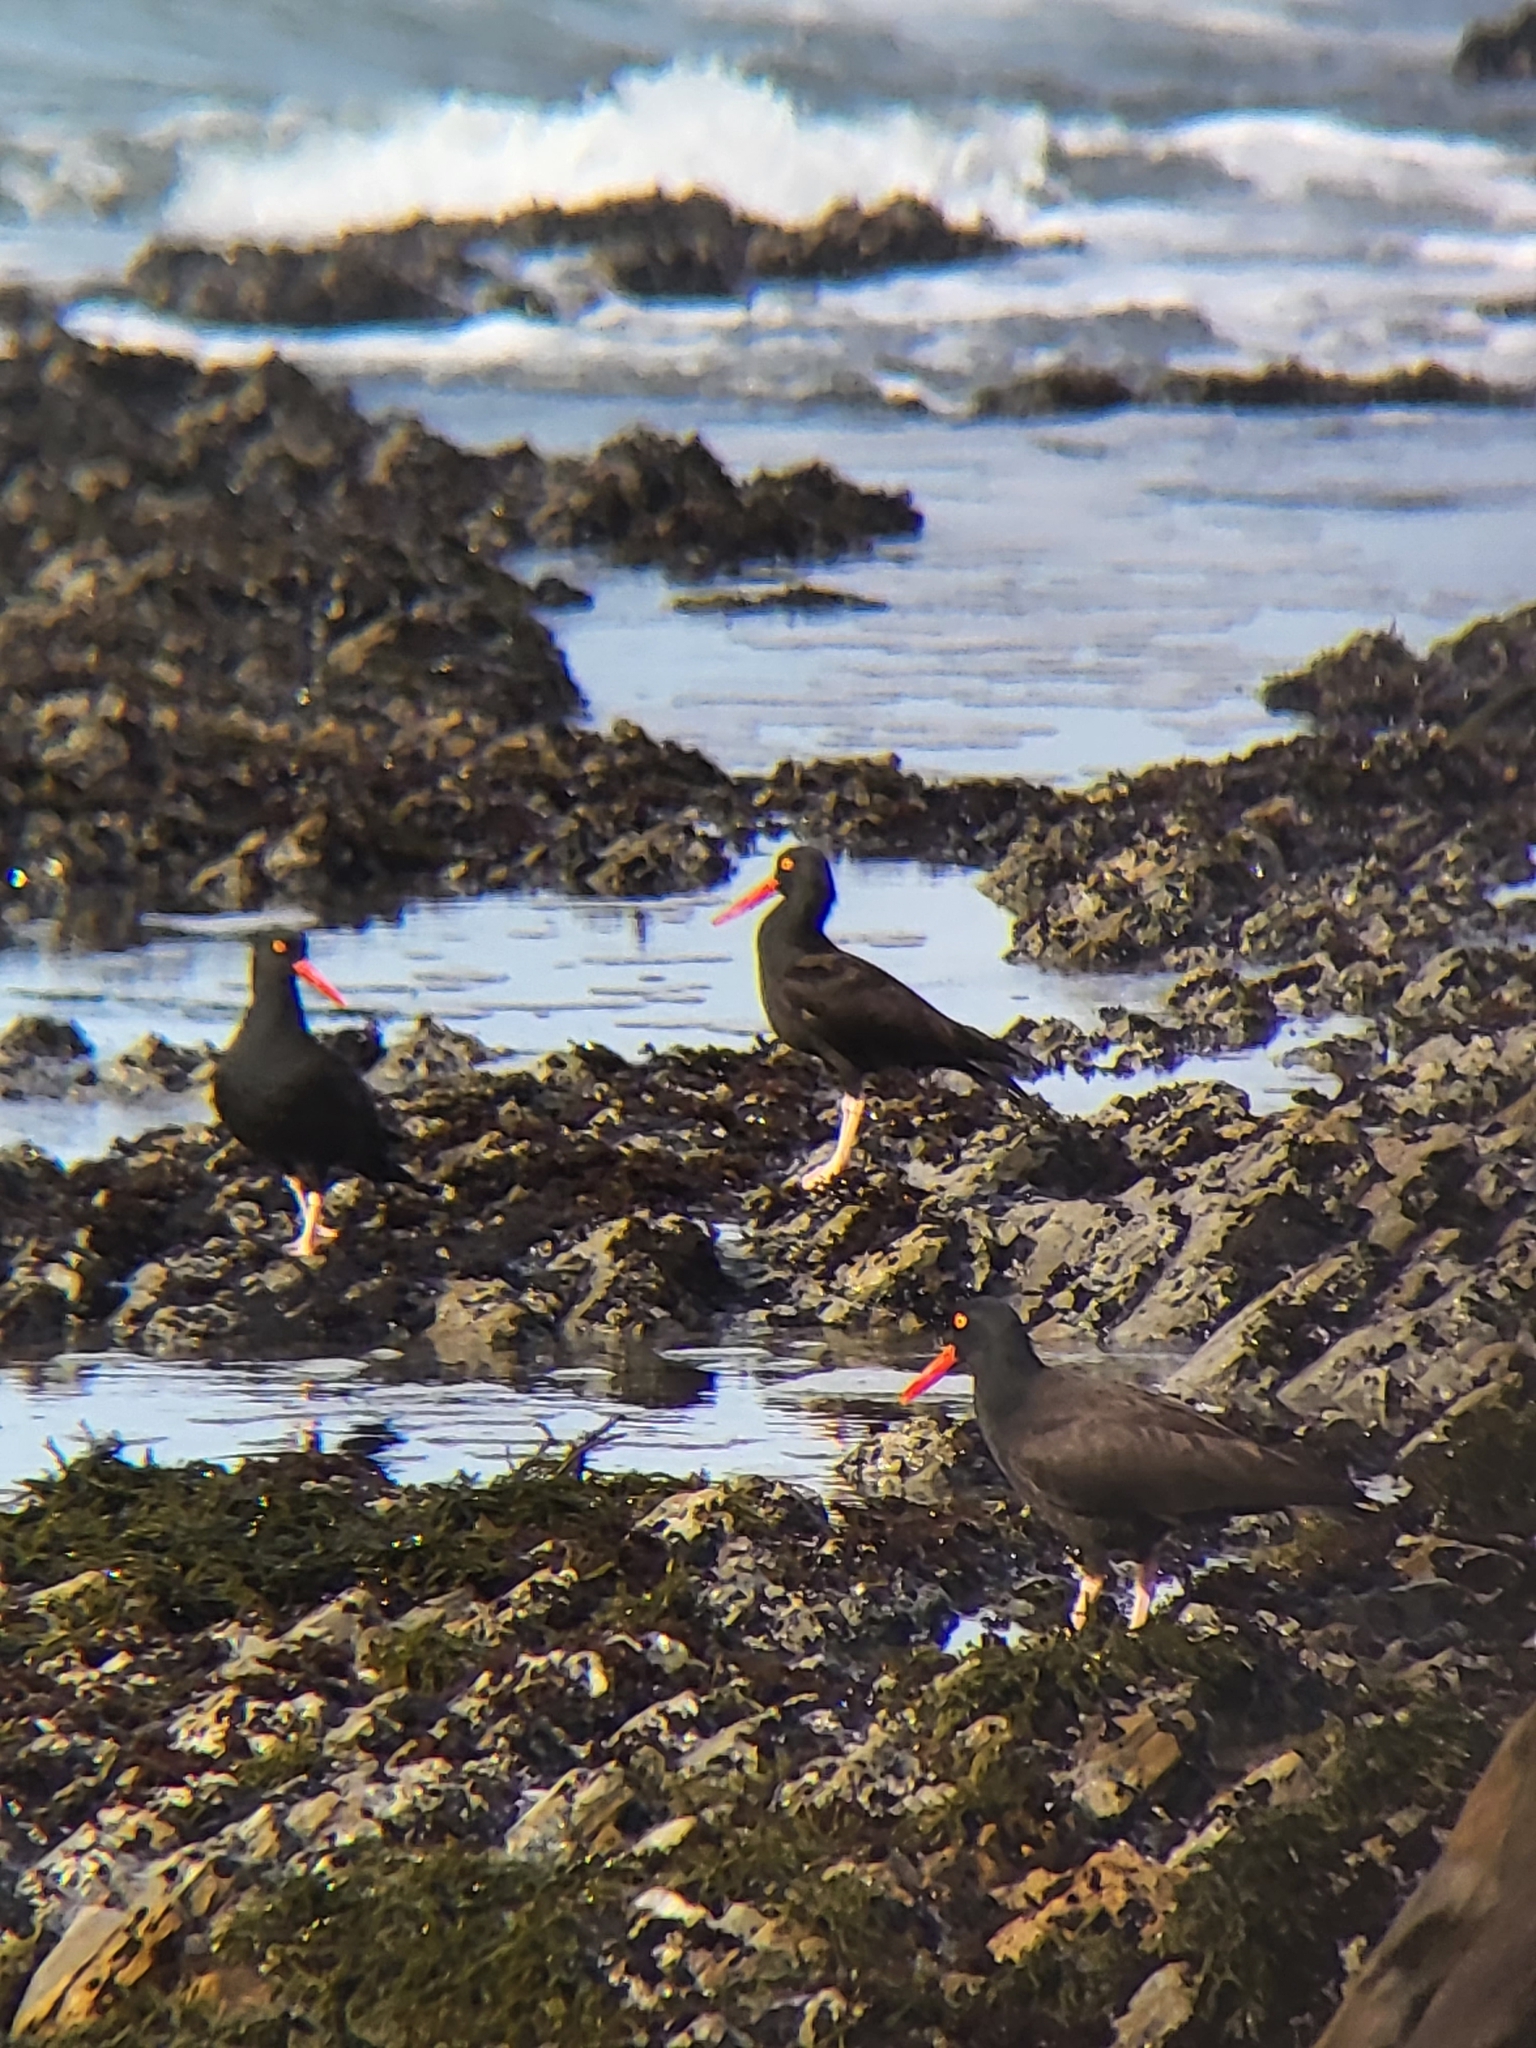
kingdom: Animalia
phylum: Chordata
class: Aves
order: Charadriiformes
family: Haematopodidae
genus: Haematopus
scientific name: Haematopus bachmani
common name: Black oystercatcher
